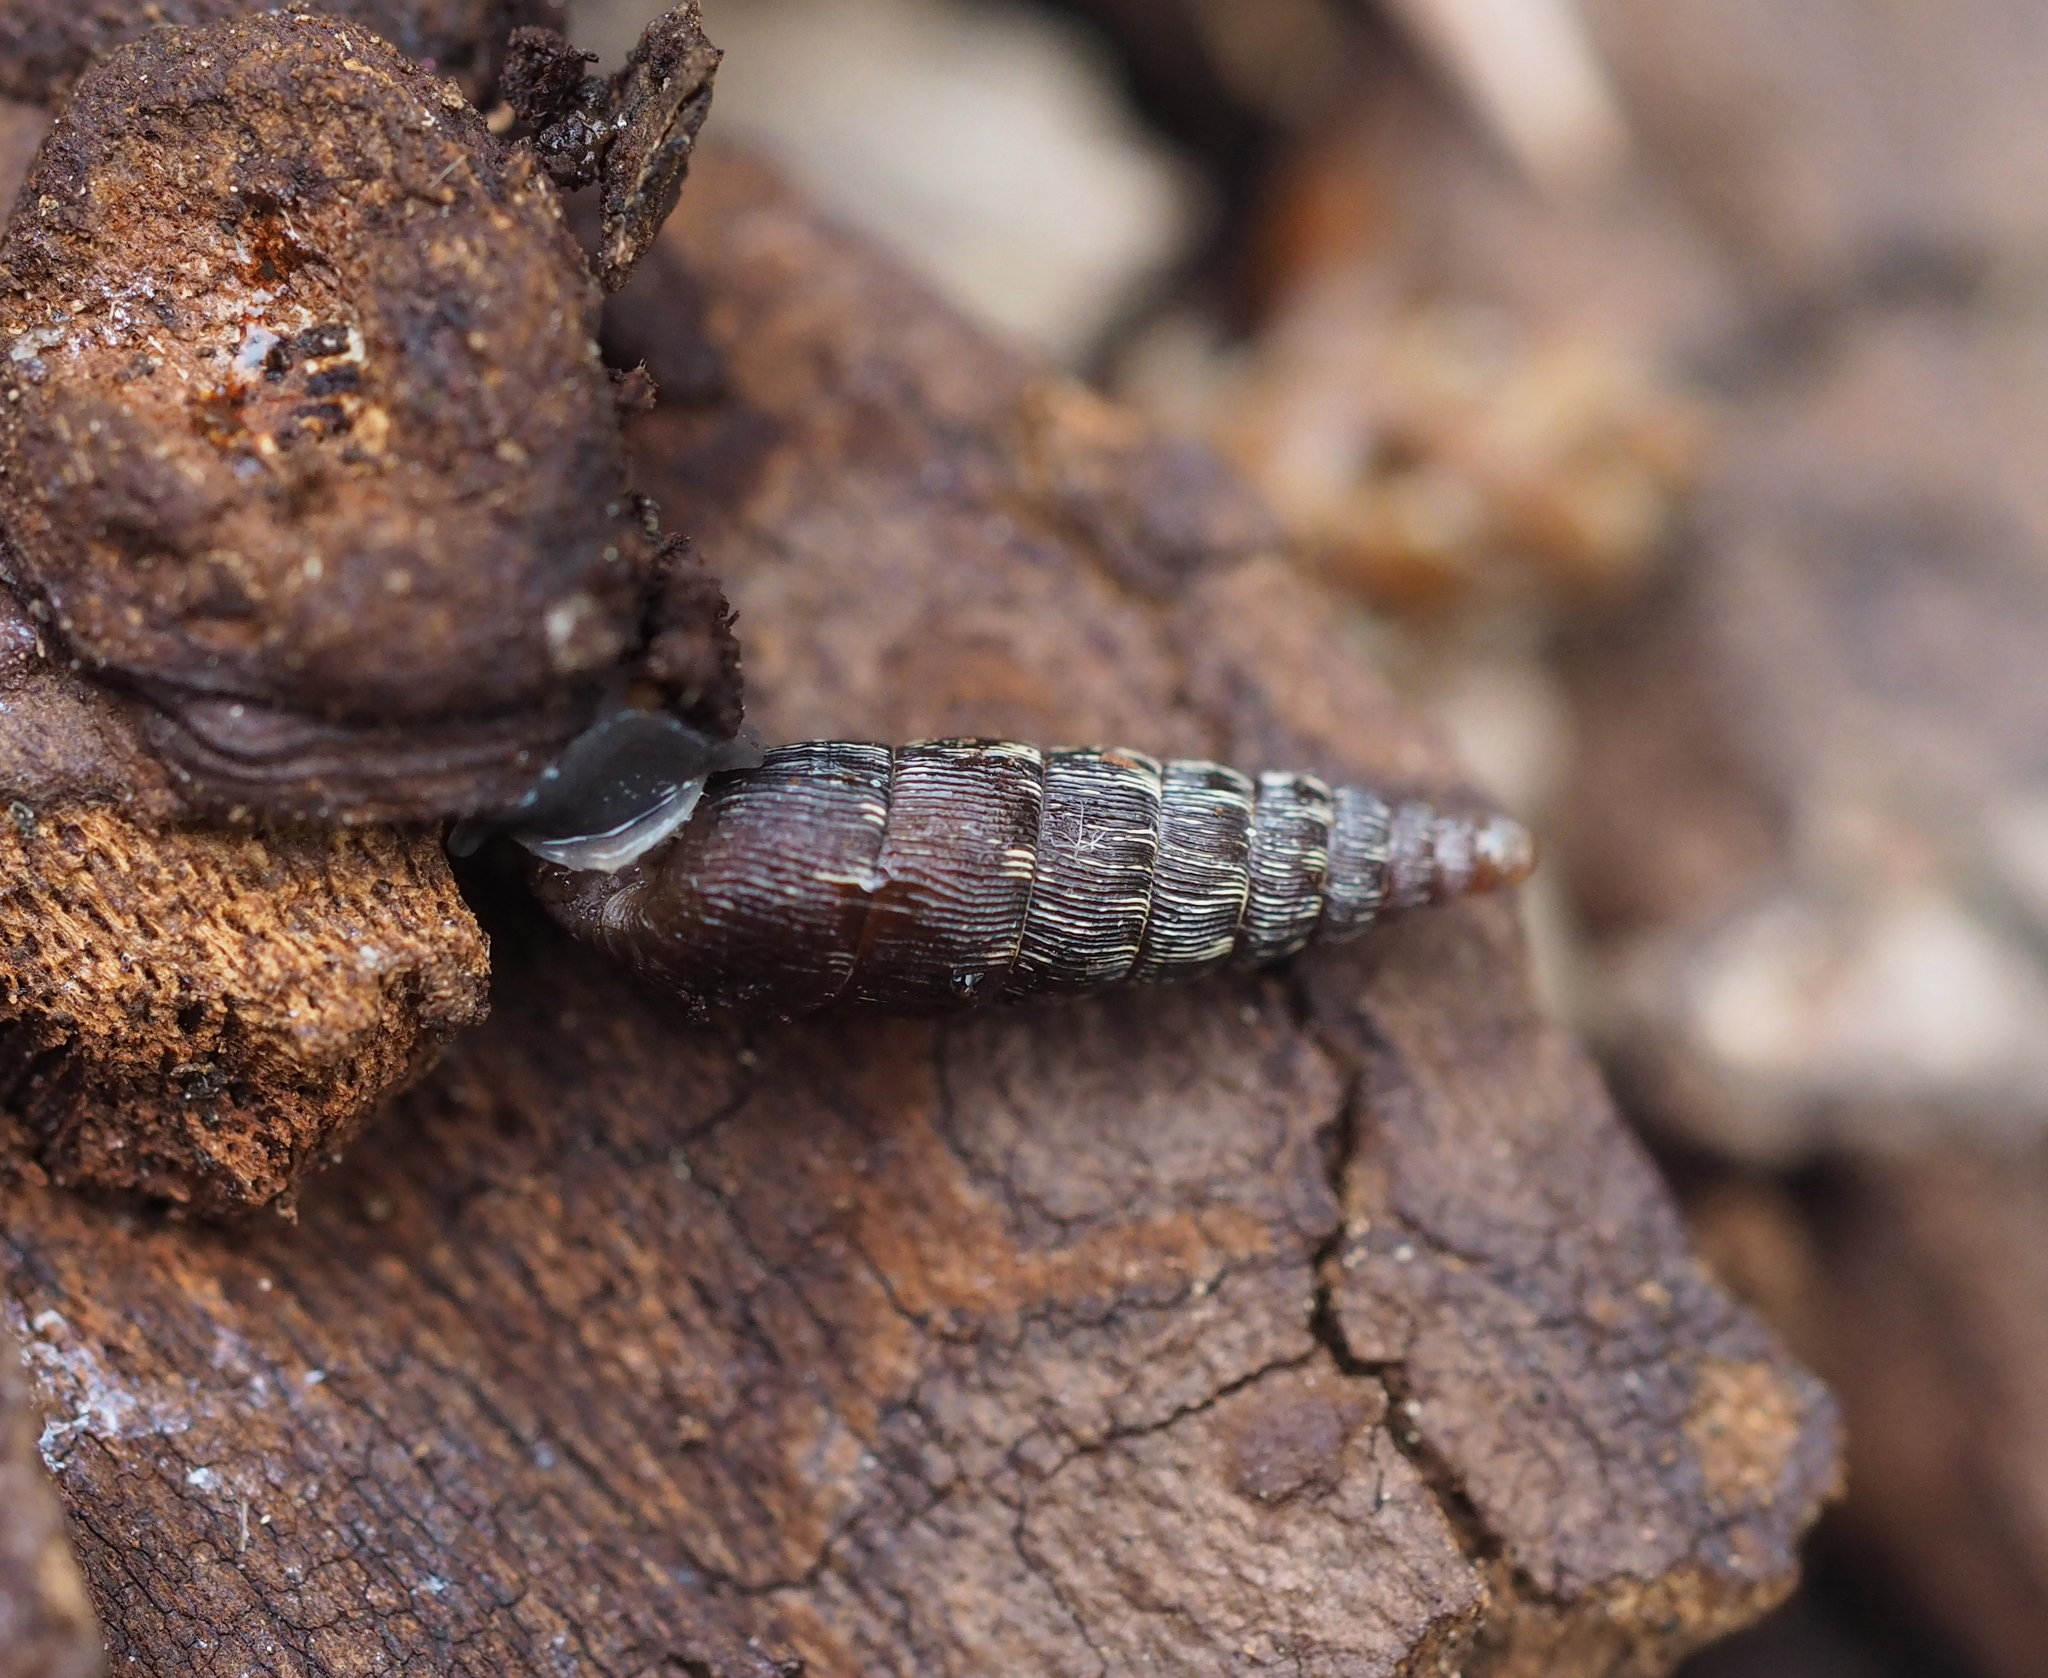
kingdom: Animalia
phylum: Mollusca
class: Gastropoda
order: Stylommatophora
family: Clausiliidae
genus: Clausilia
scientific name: Clausilia dubia
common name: Craven door snail
